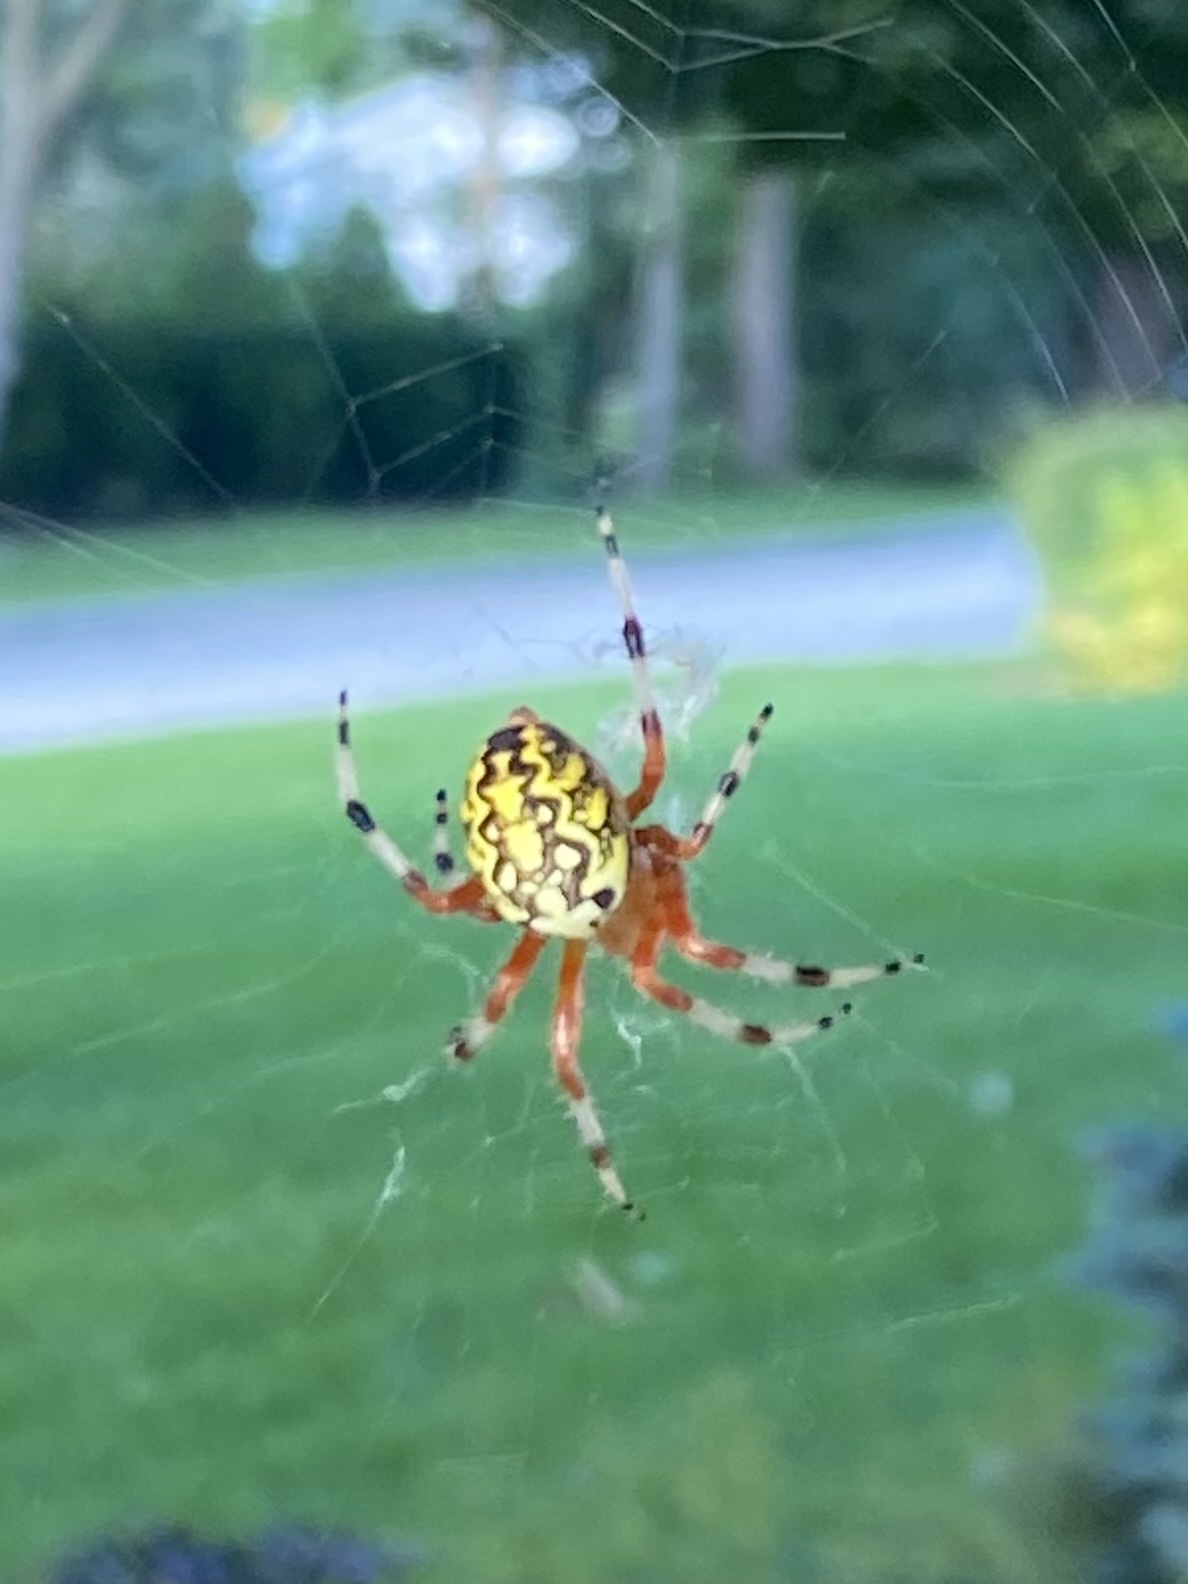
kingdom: Animalia
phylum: Arthropoda
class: Arachnida
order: Araneae
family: Araneidae
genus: Araneus
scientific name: Araneus marmoreus
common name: Marbled orbweaver
